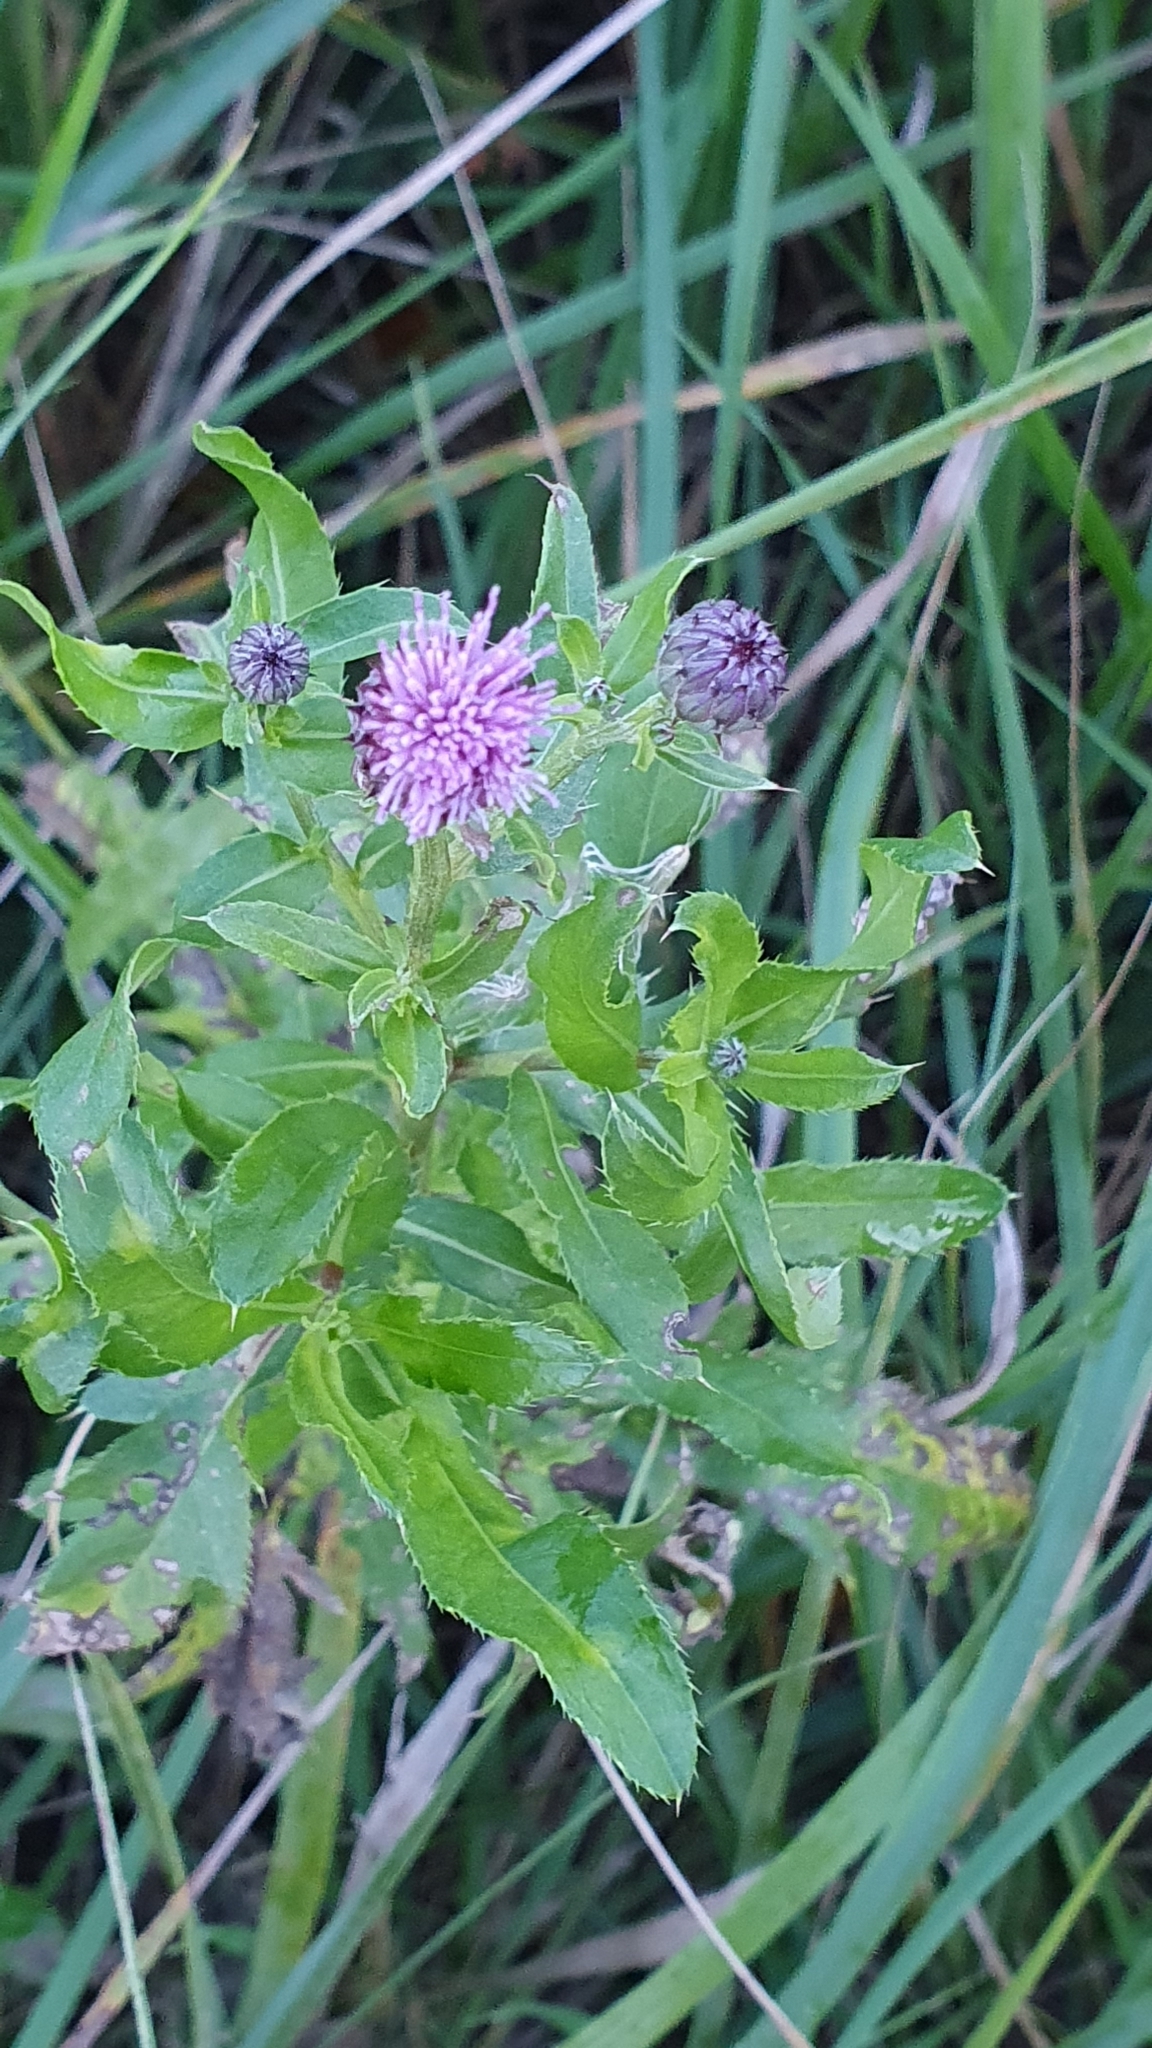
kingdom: Plantae
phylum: Tracheophyta
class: Magnoliopsida
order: Asterales
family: Asteraceae
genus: Cirsium
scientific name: Cirsium arvense
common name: Creeping thistle
